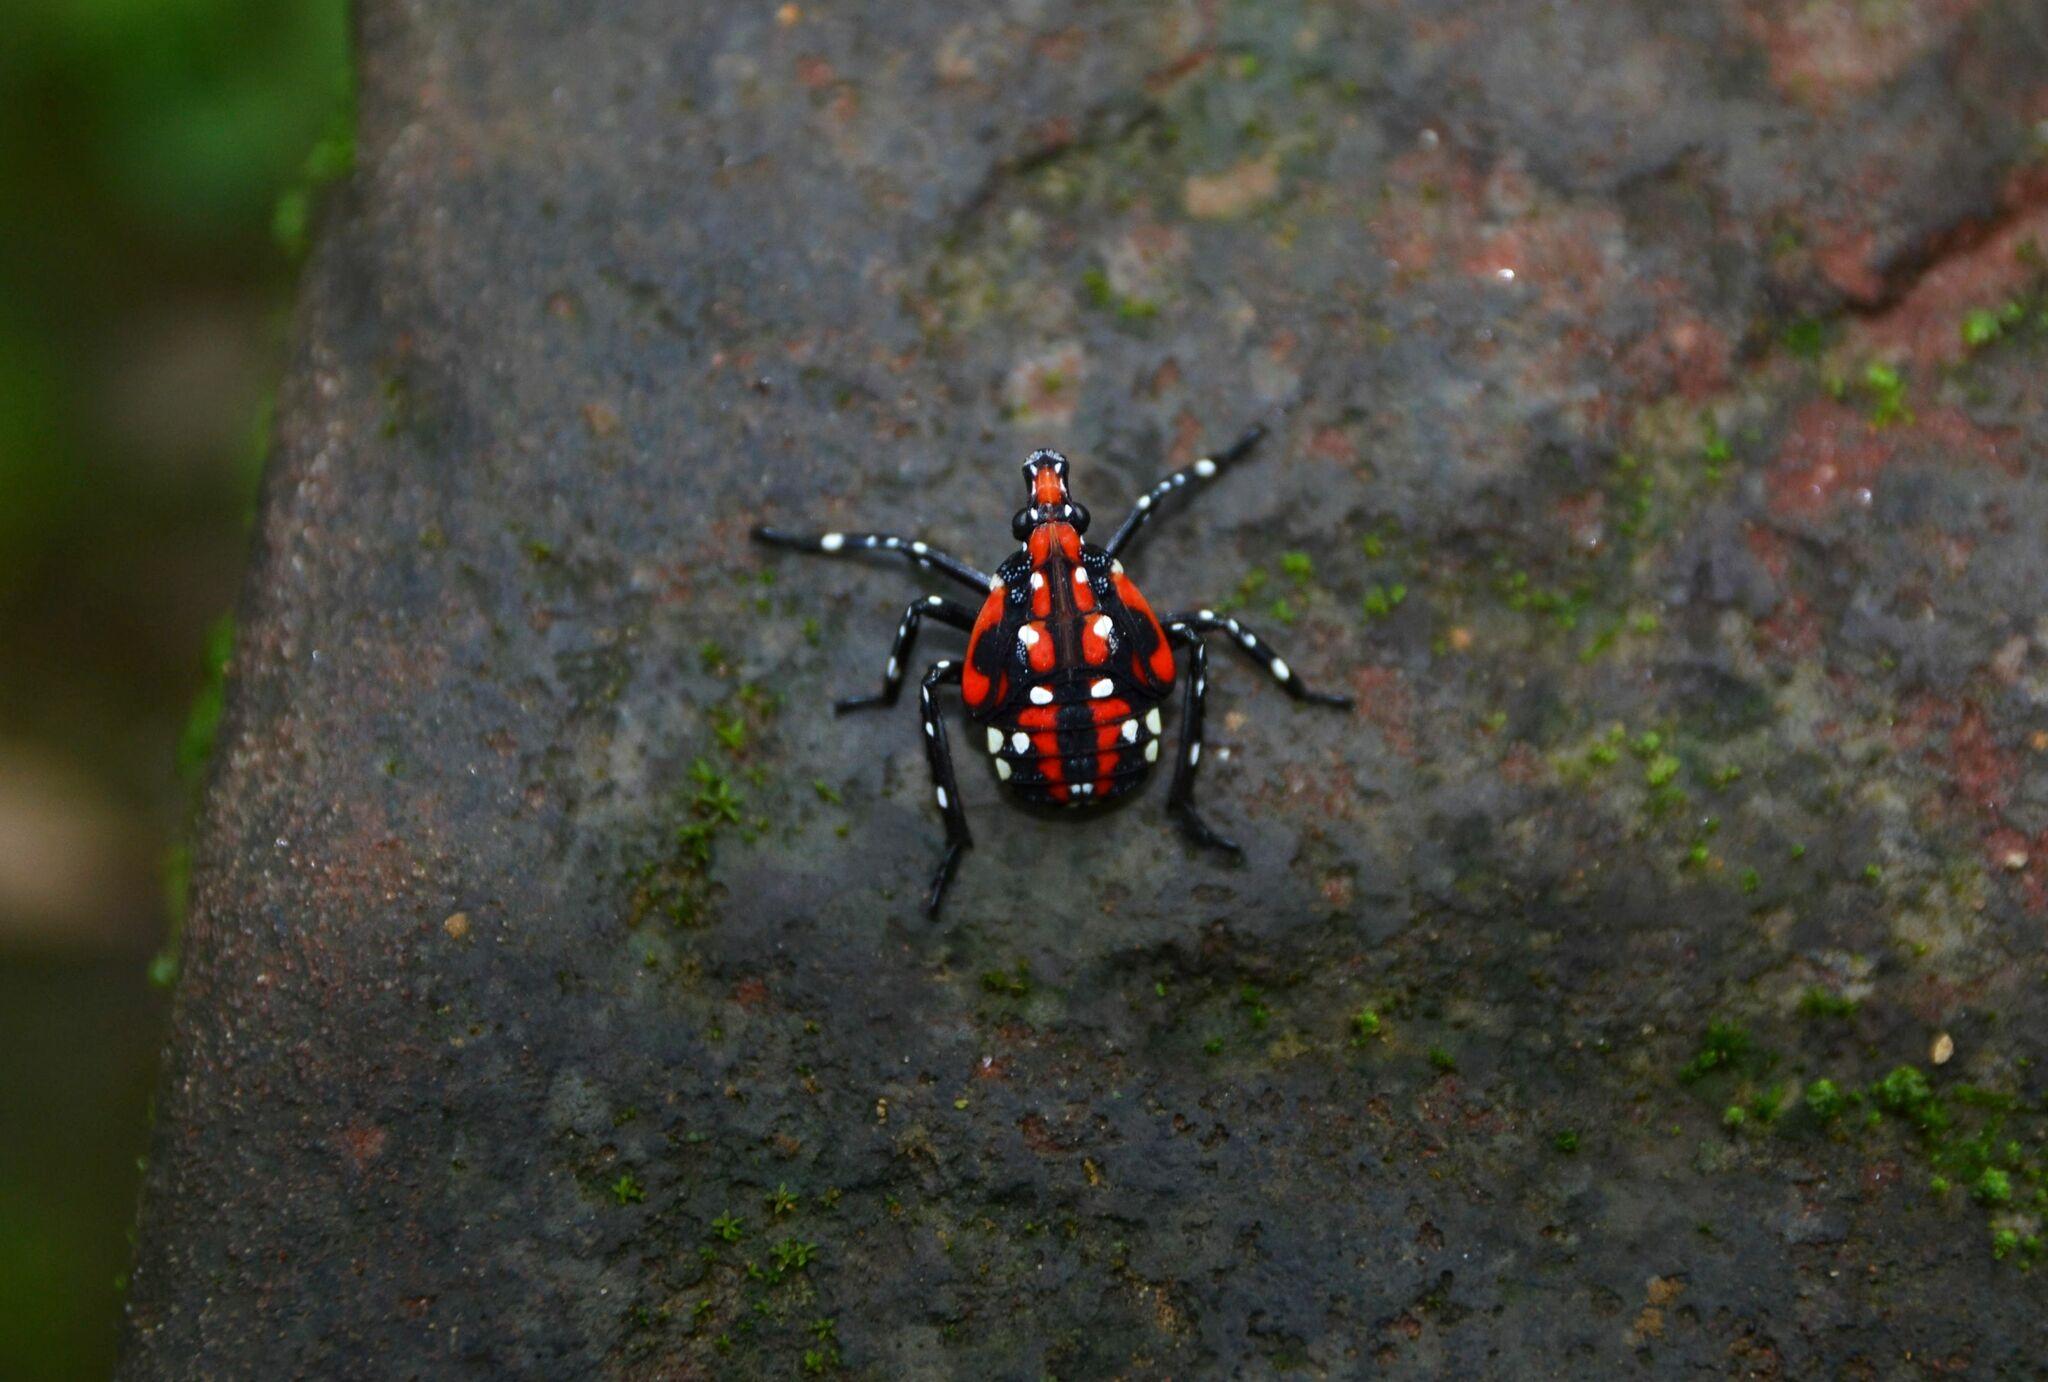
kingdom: Animalia
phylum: Arthropoda
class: Insecta
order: Hemiptera
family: Fulgoridae
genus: Lycorma
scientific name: Lycorma delicatula
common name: Spotted lanternfly
